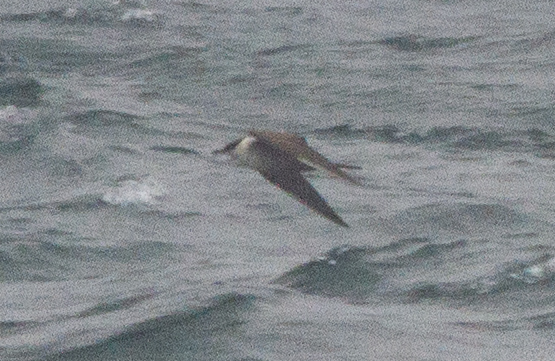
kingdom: Animalia
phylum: Chordata
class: Aves
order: Charadriiformes
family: Stercorariidae
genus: Stercorarius
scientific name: Stercorarius longicaudus
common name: Long-tailed jaeger
